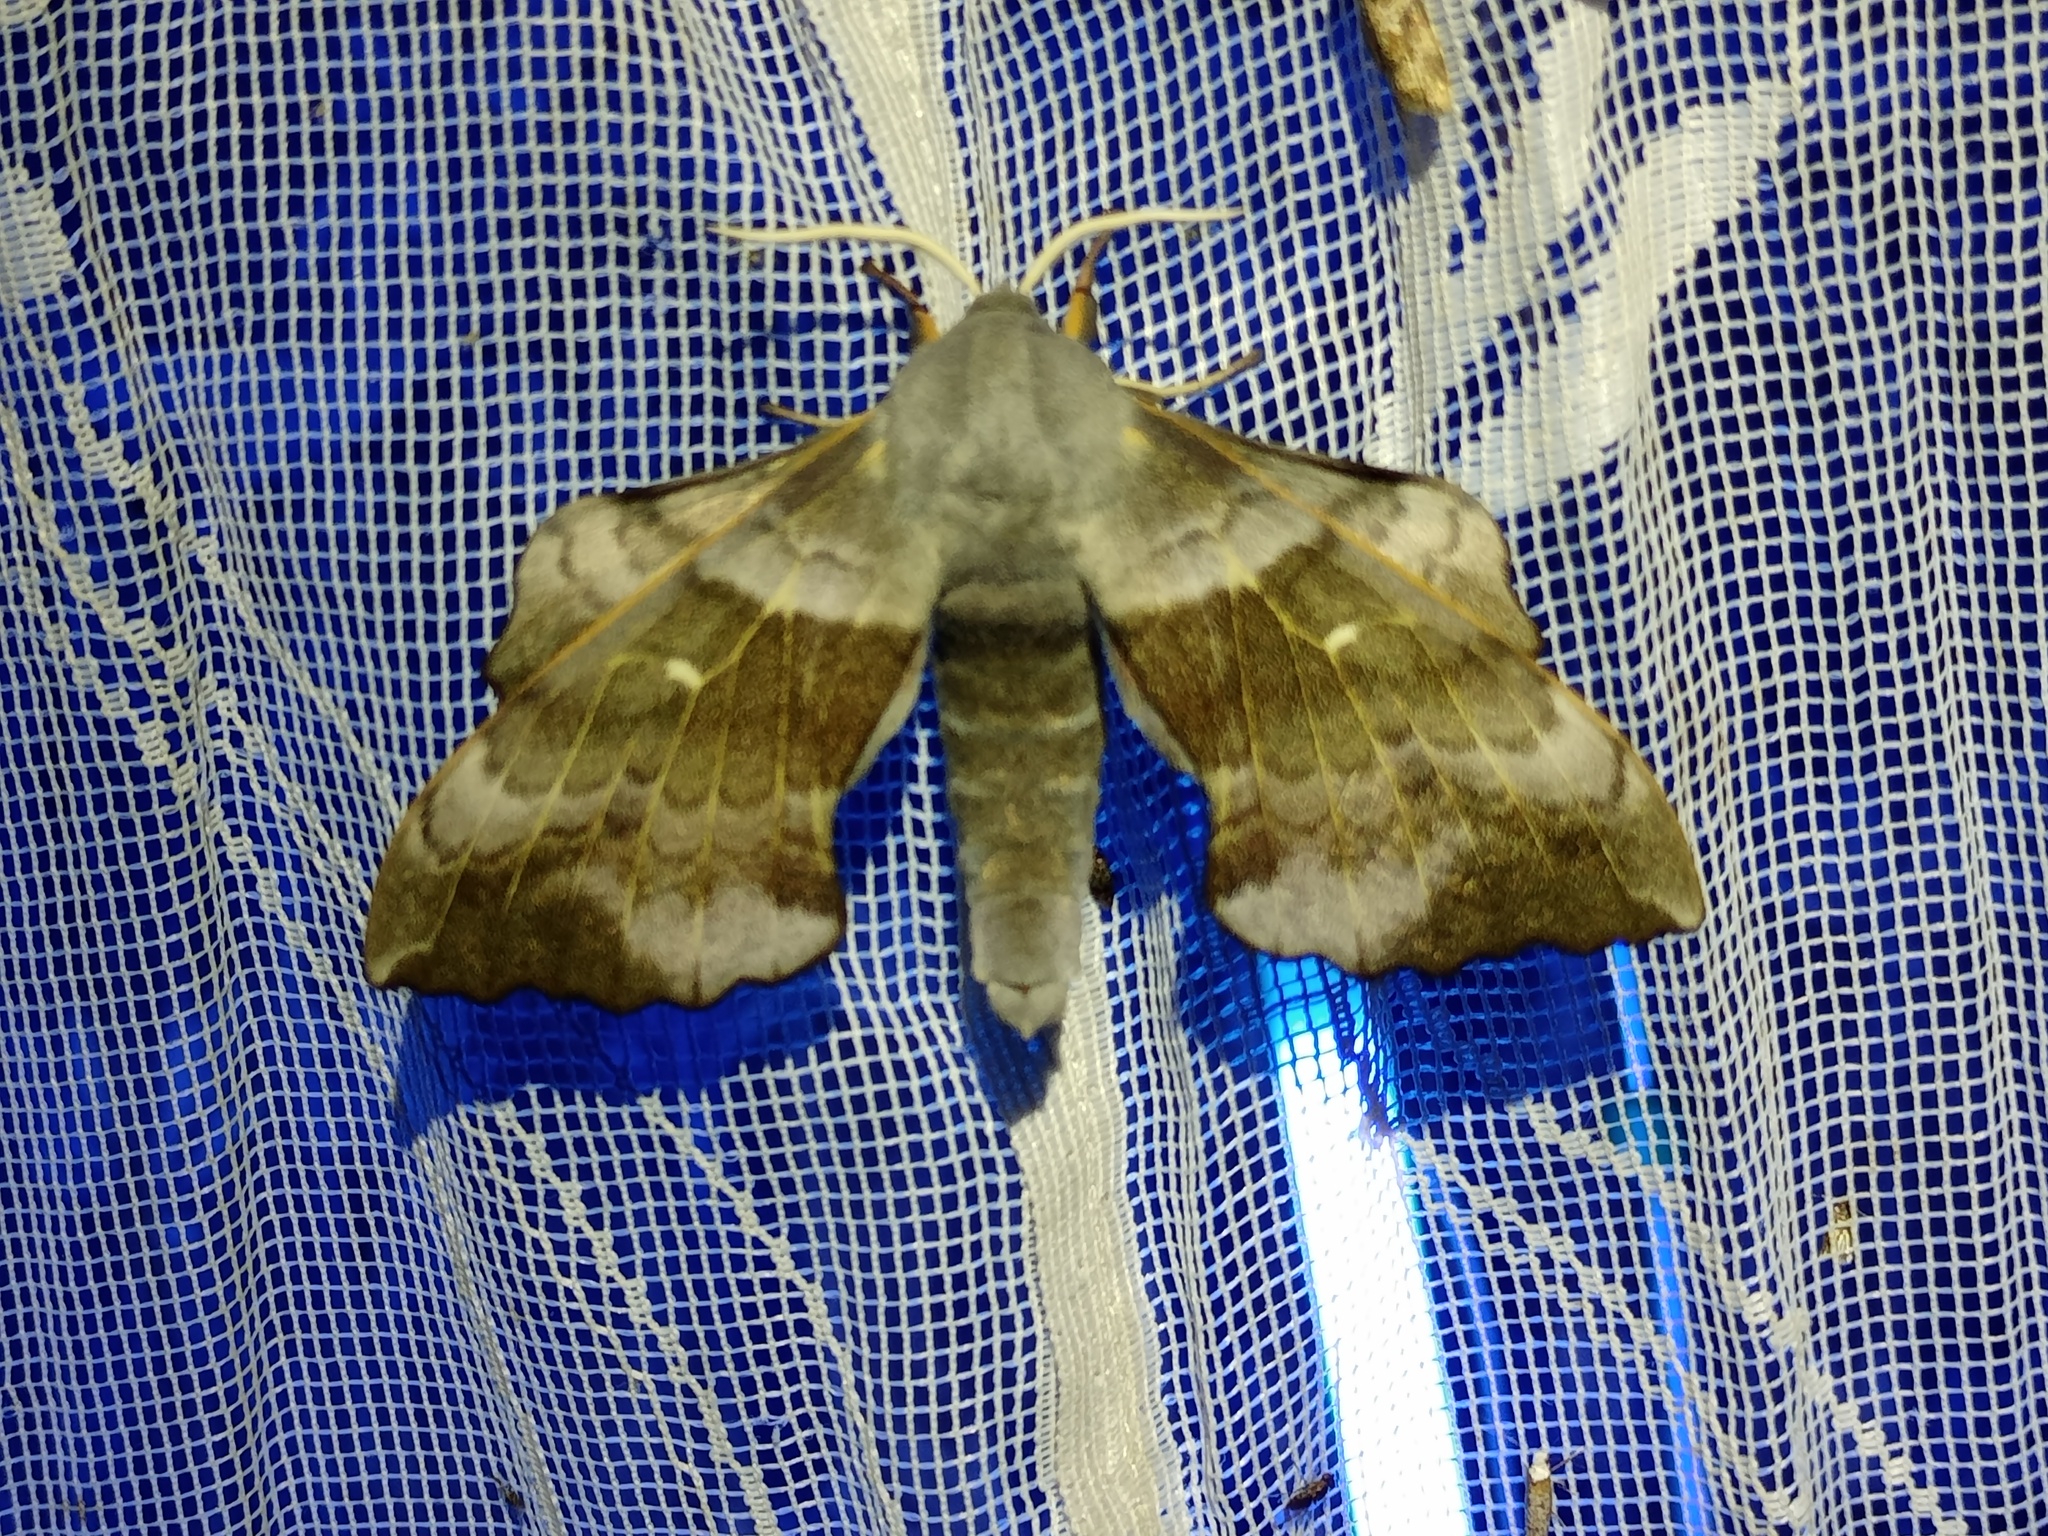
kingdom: Animalia
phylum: Arthropoda
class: Insecta
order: Lepidoptera
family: Sphingidae
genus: Laothoe
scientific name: Laothoe populi
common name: Poplar hawk-moth
